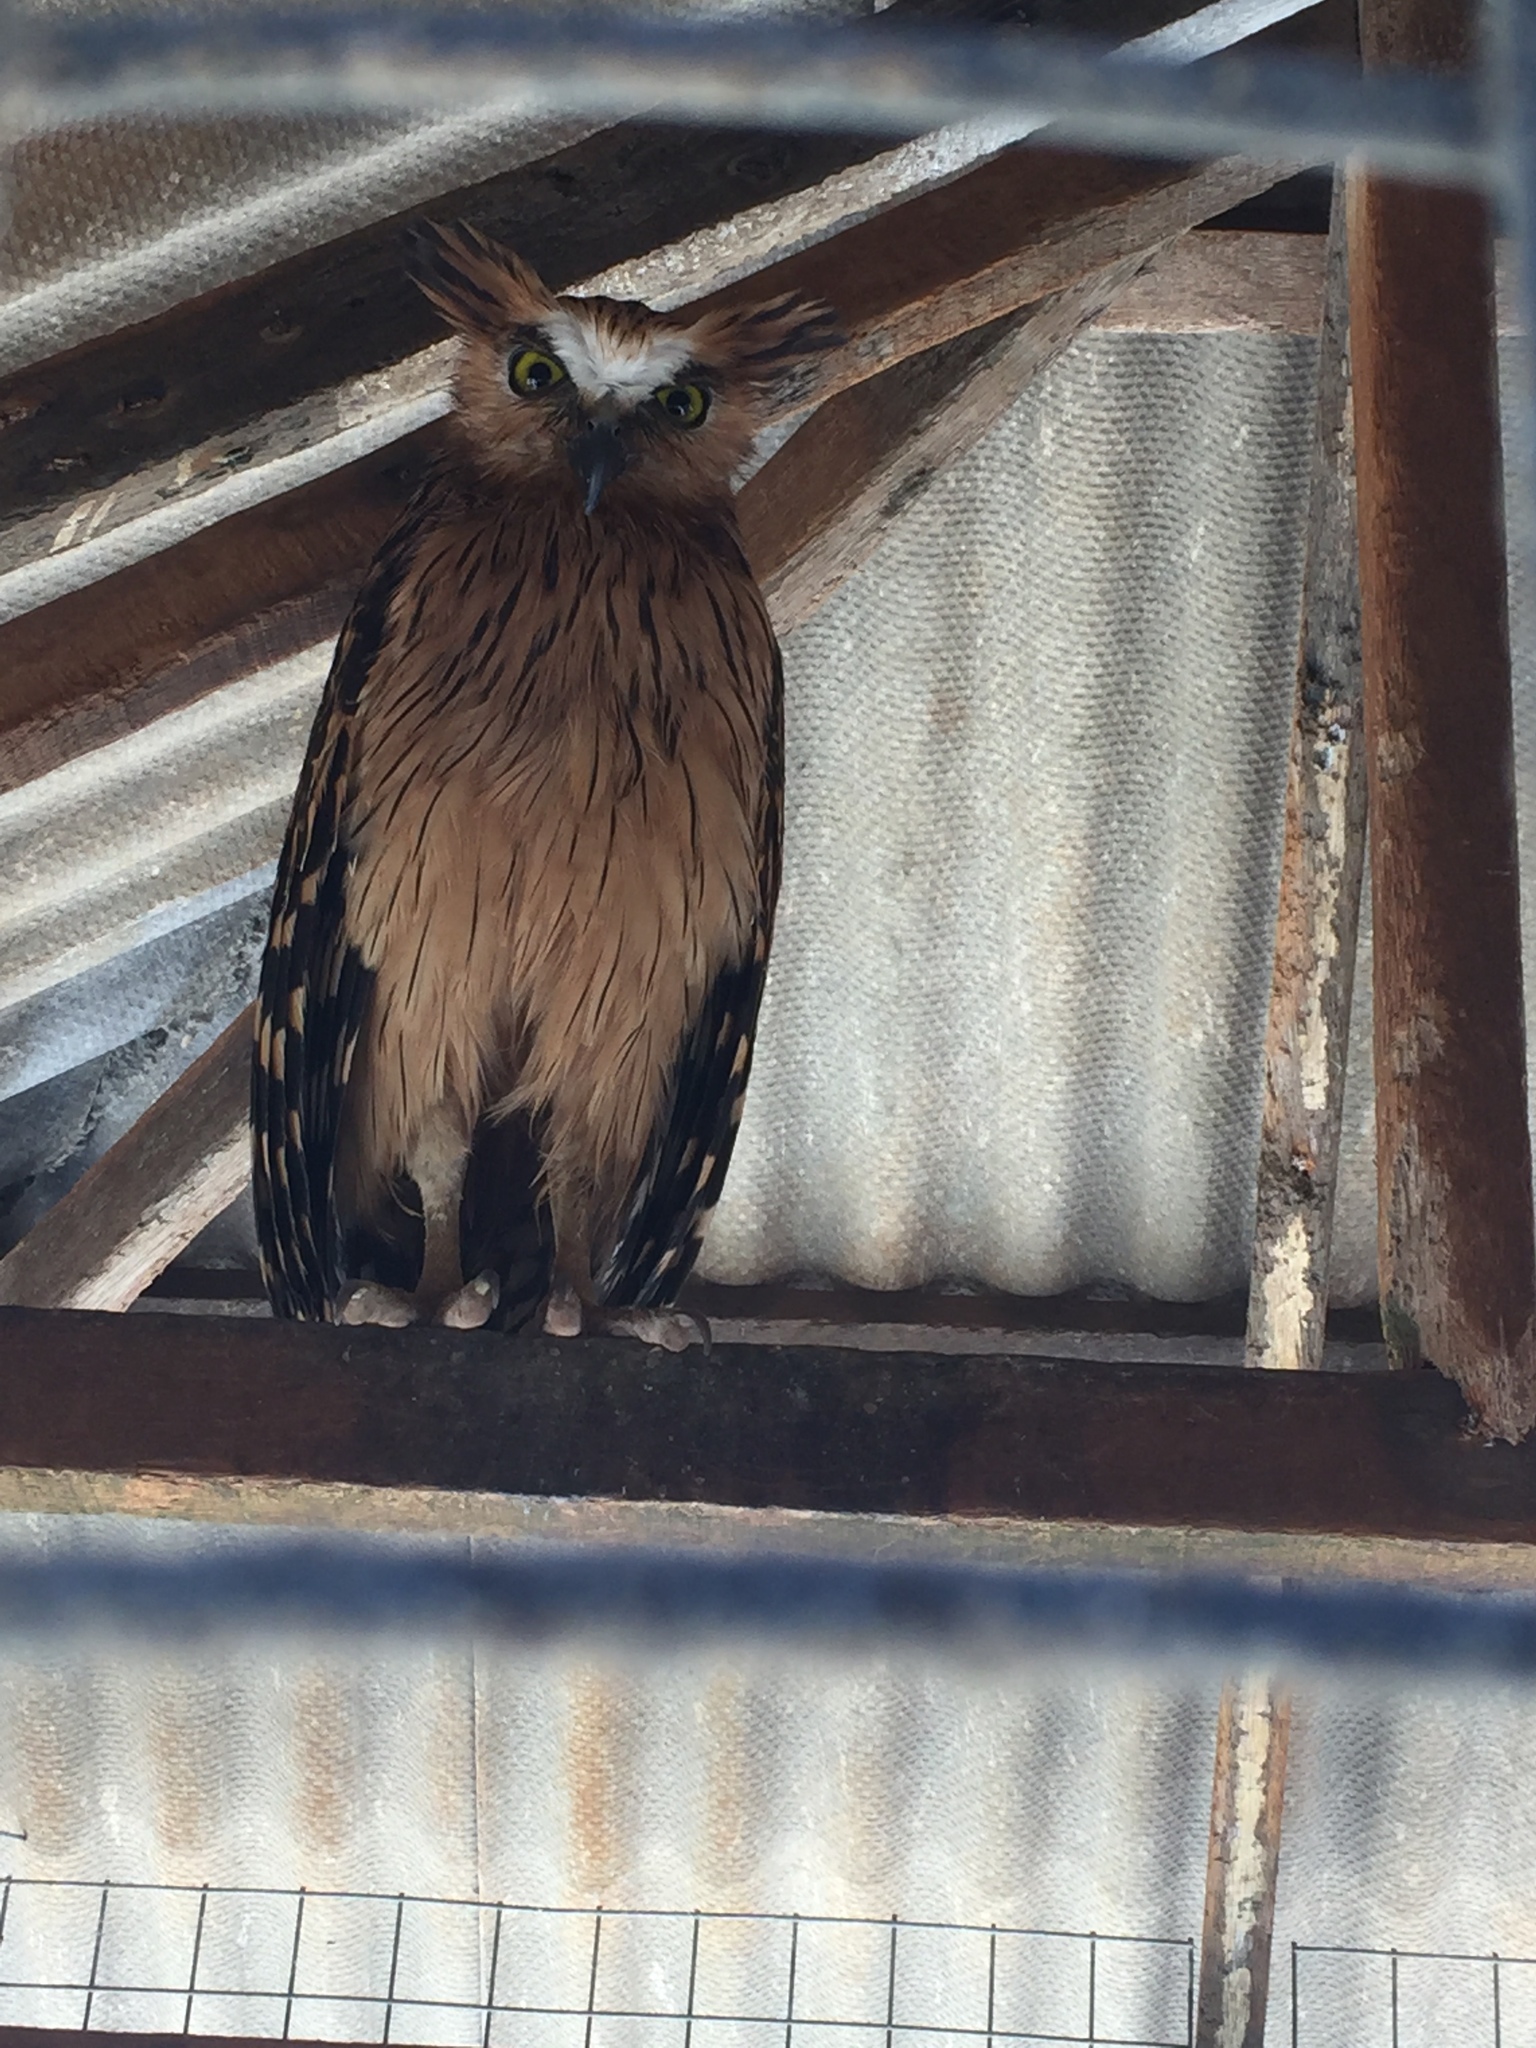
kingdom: Animalia
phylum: Chordata
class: Aves
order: Strigiformes
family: Strigidae
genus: Ketupa
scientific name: Ketupa ketupu
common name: Buffy fish-owl
